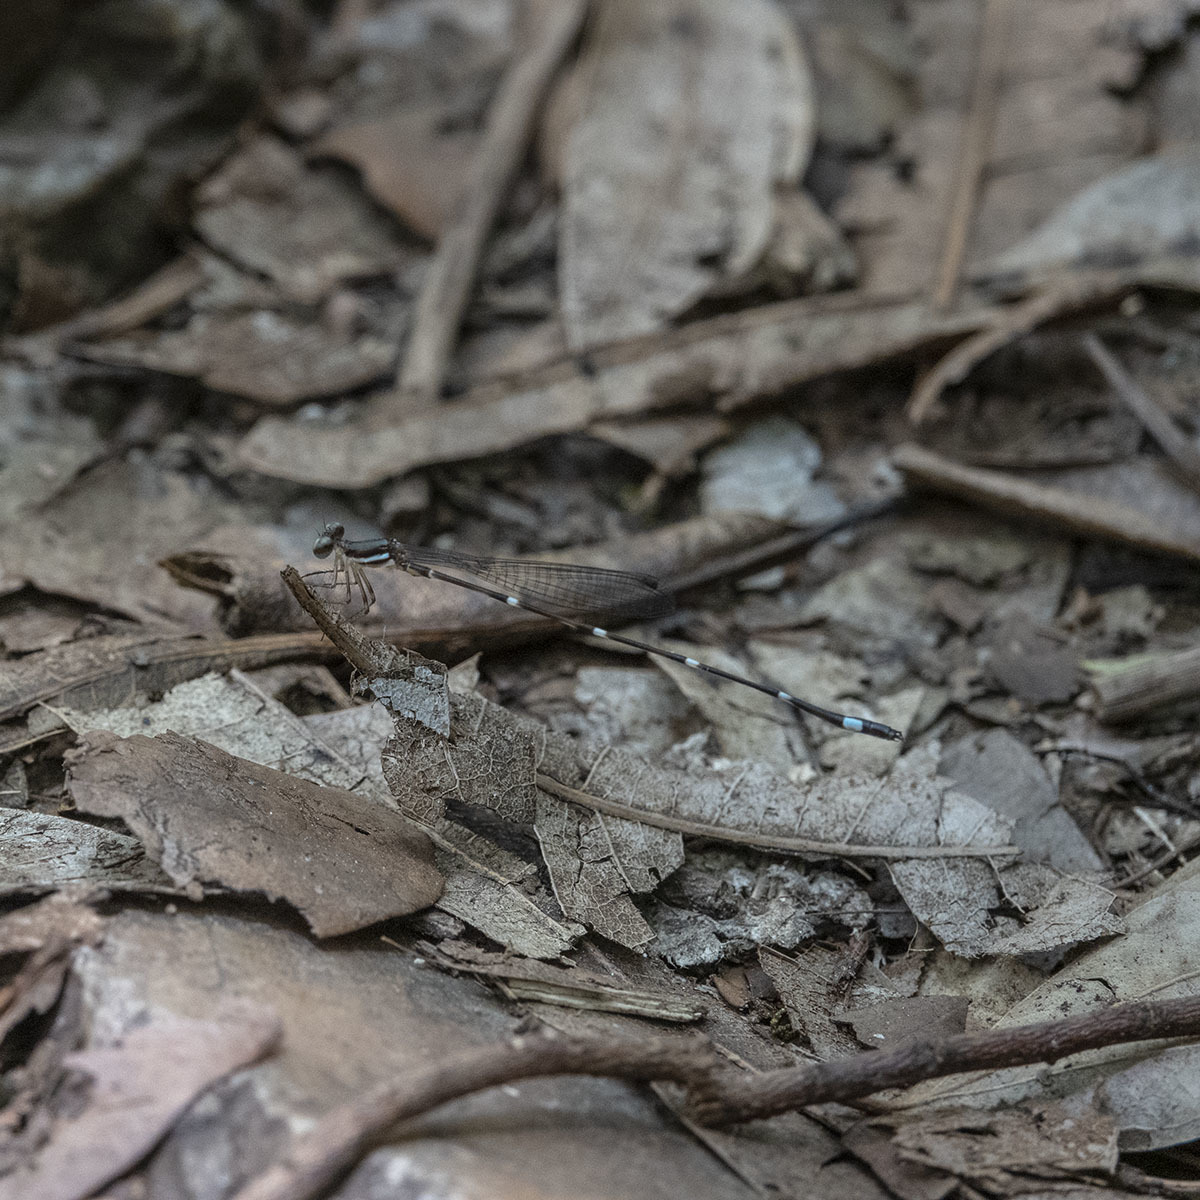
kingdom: Animalia
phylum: Arthropoda
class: Insecta
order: Odonata
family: Platystictidae
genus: Protosticta
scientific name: Protosticta sanguinostigma
